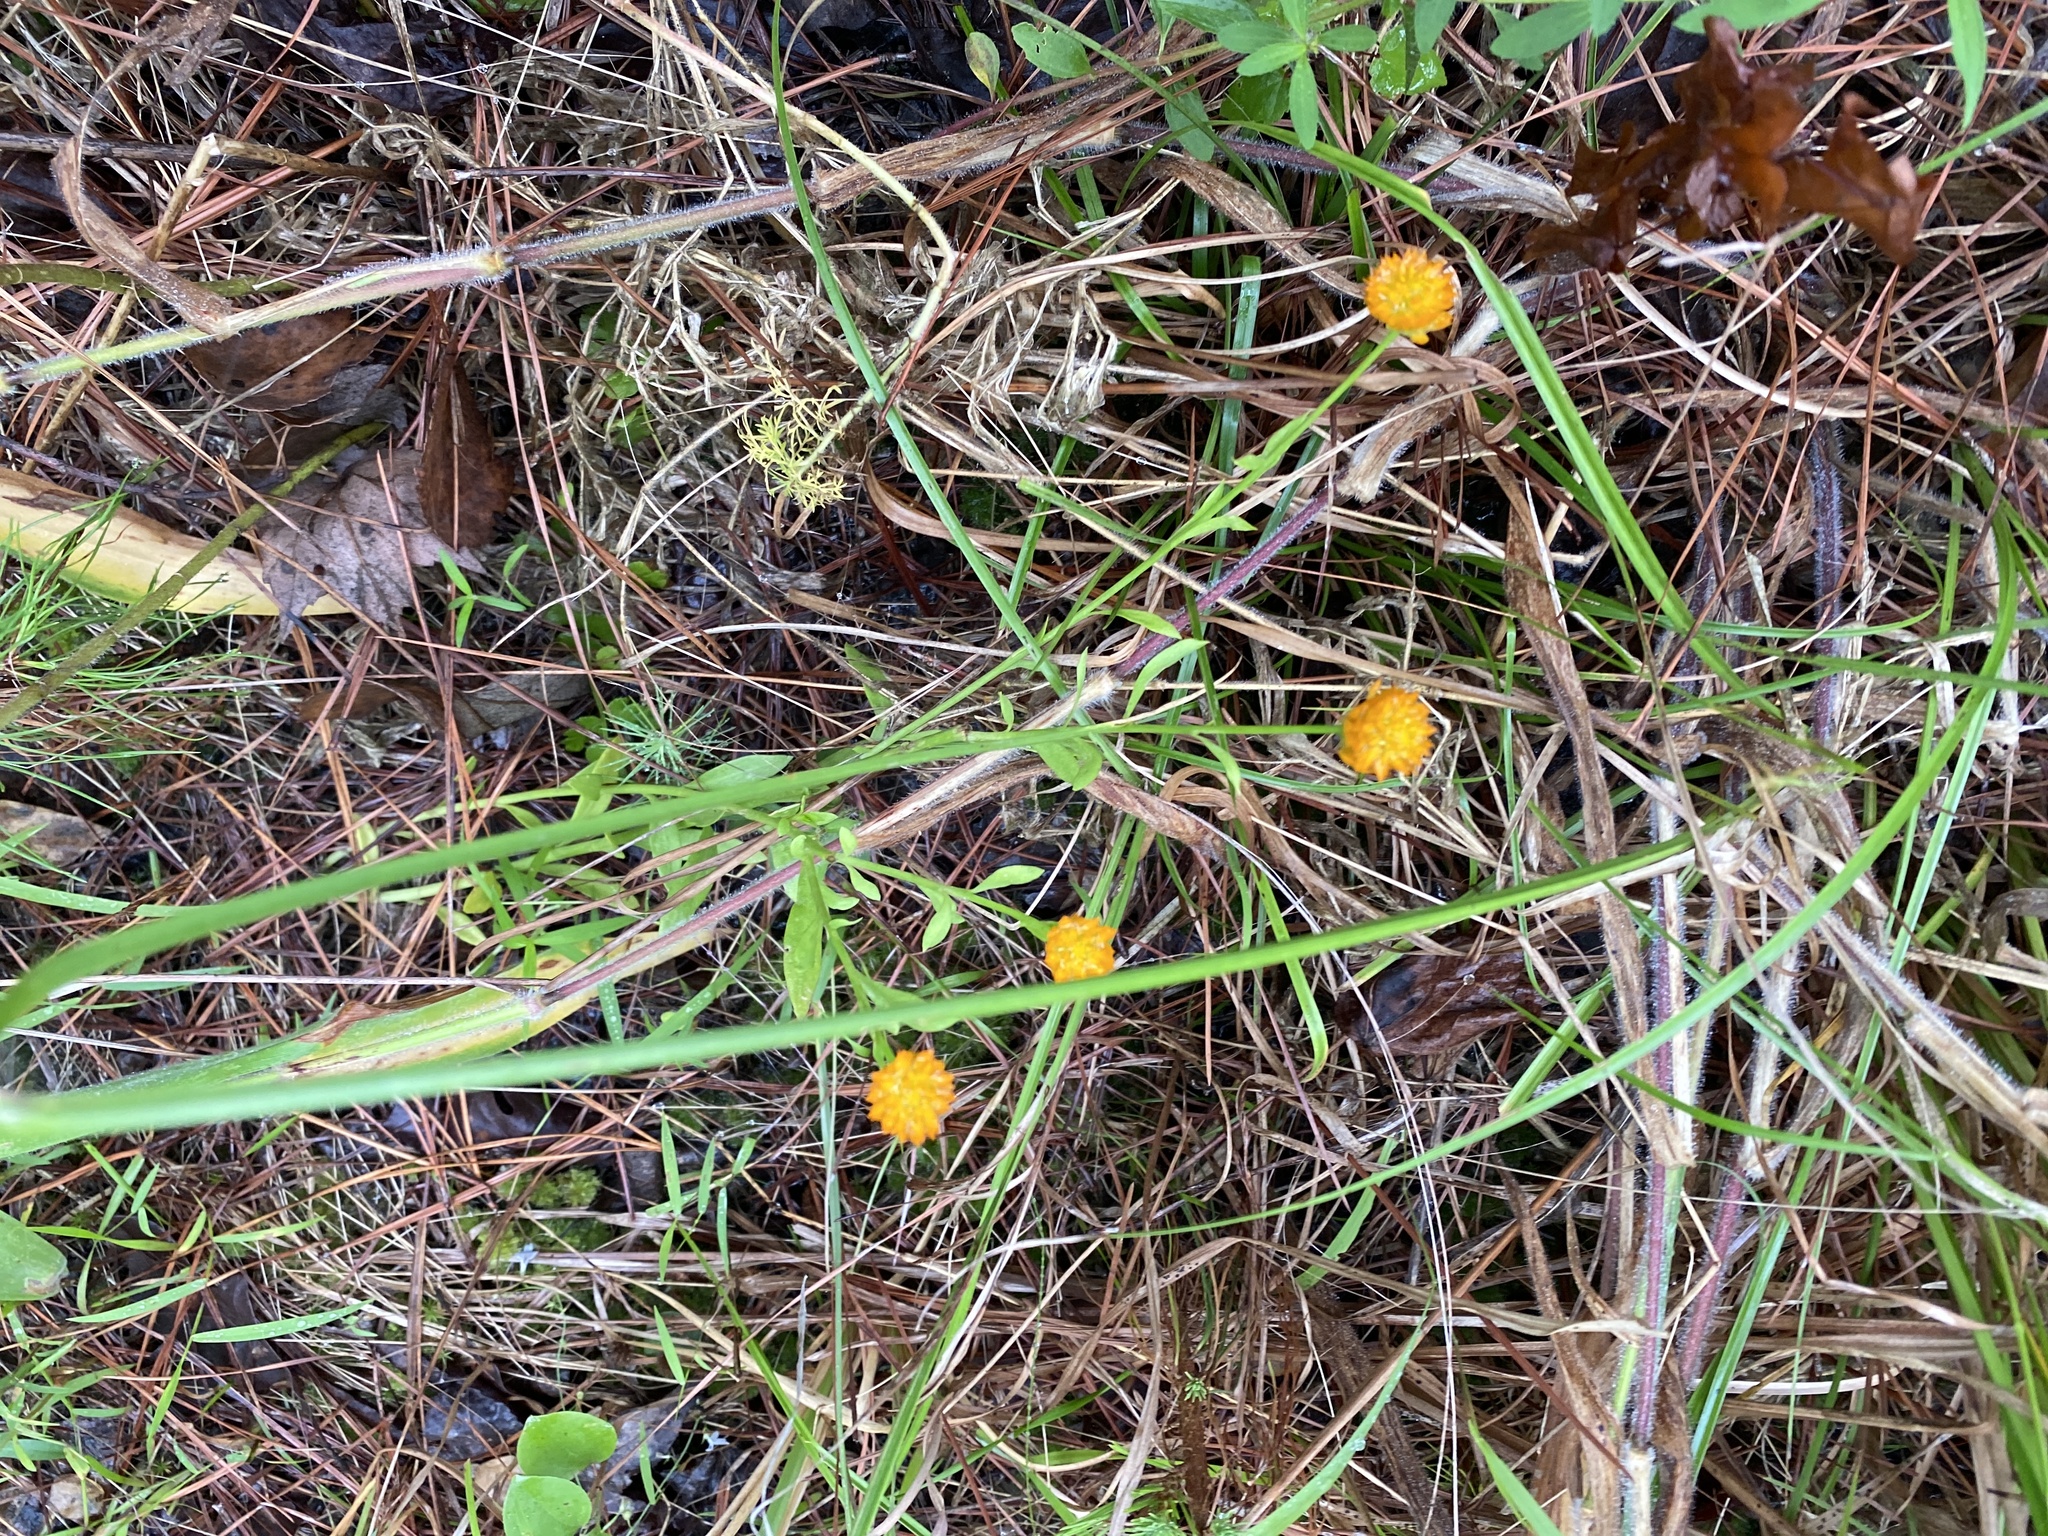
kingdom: Plantae
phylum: Tracheophyta
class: Magnoliopsida
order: Fabales
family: Polygalaceae
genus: Polygala
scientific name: Polygala lutea
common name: Orange milkwort
